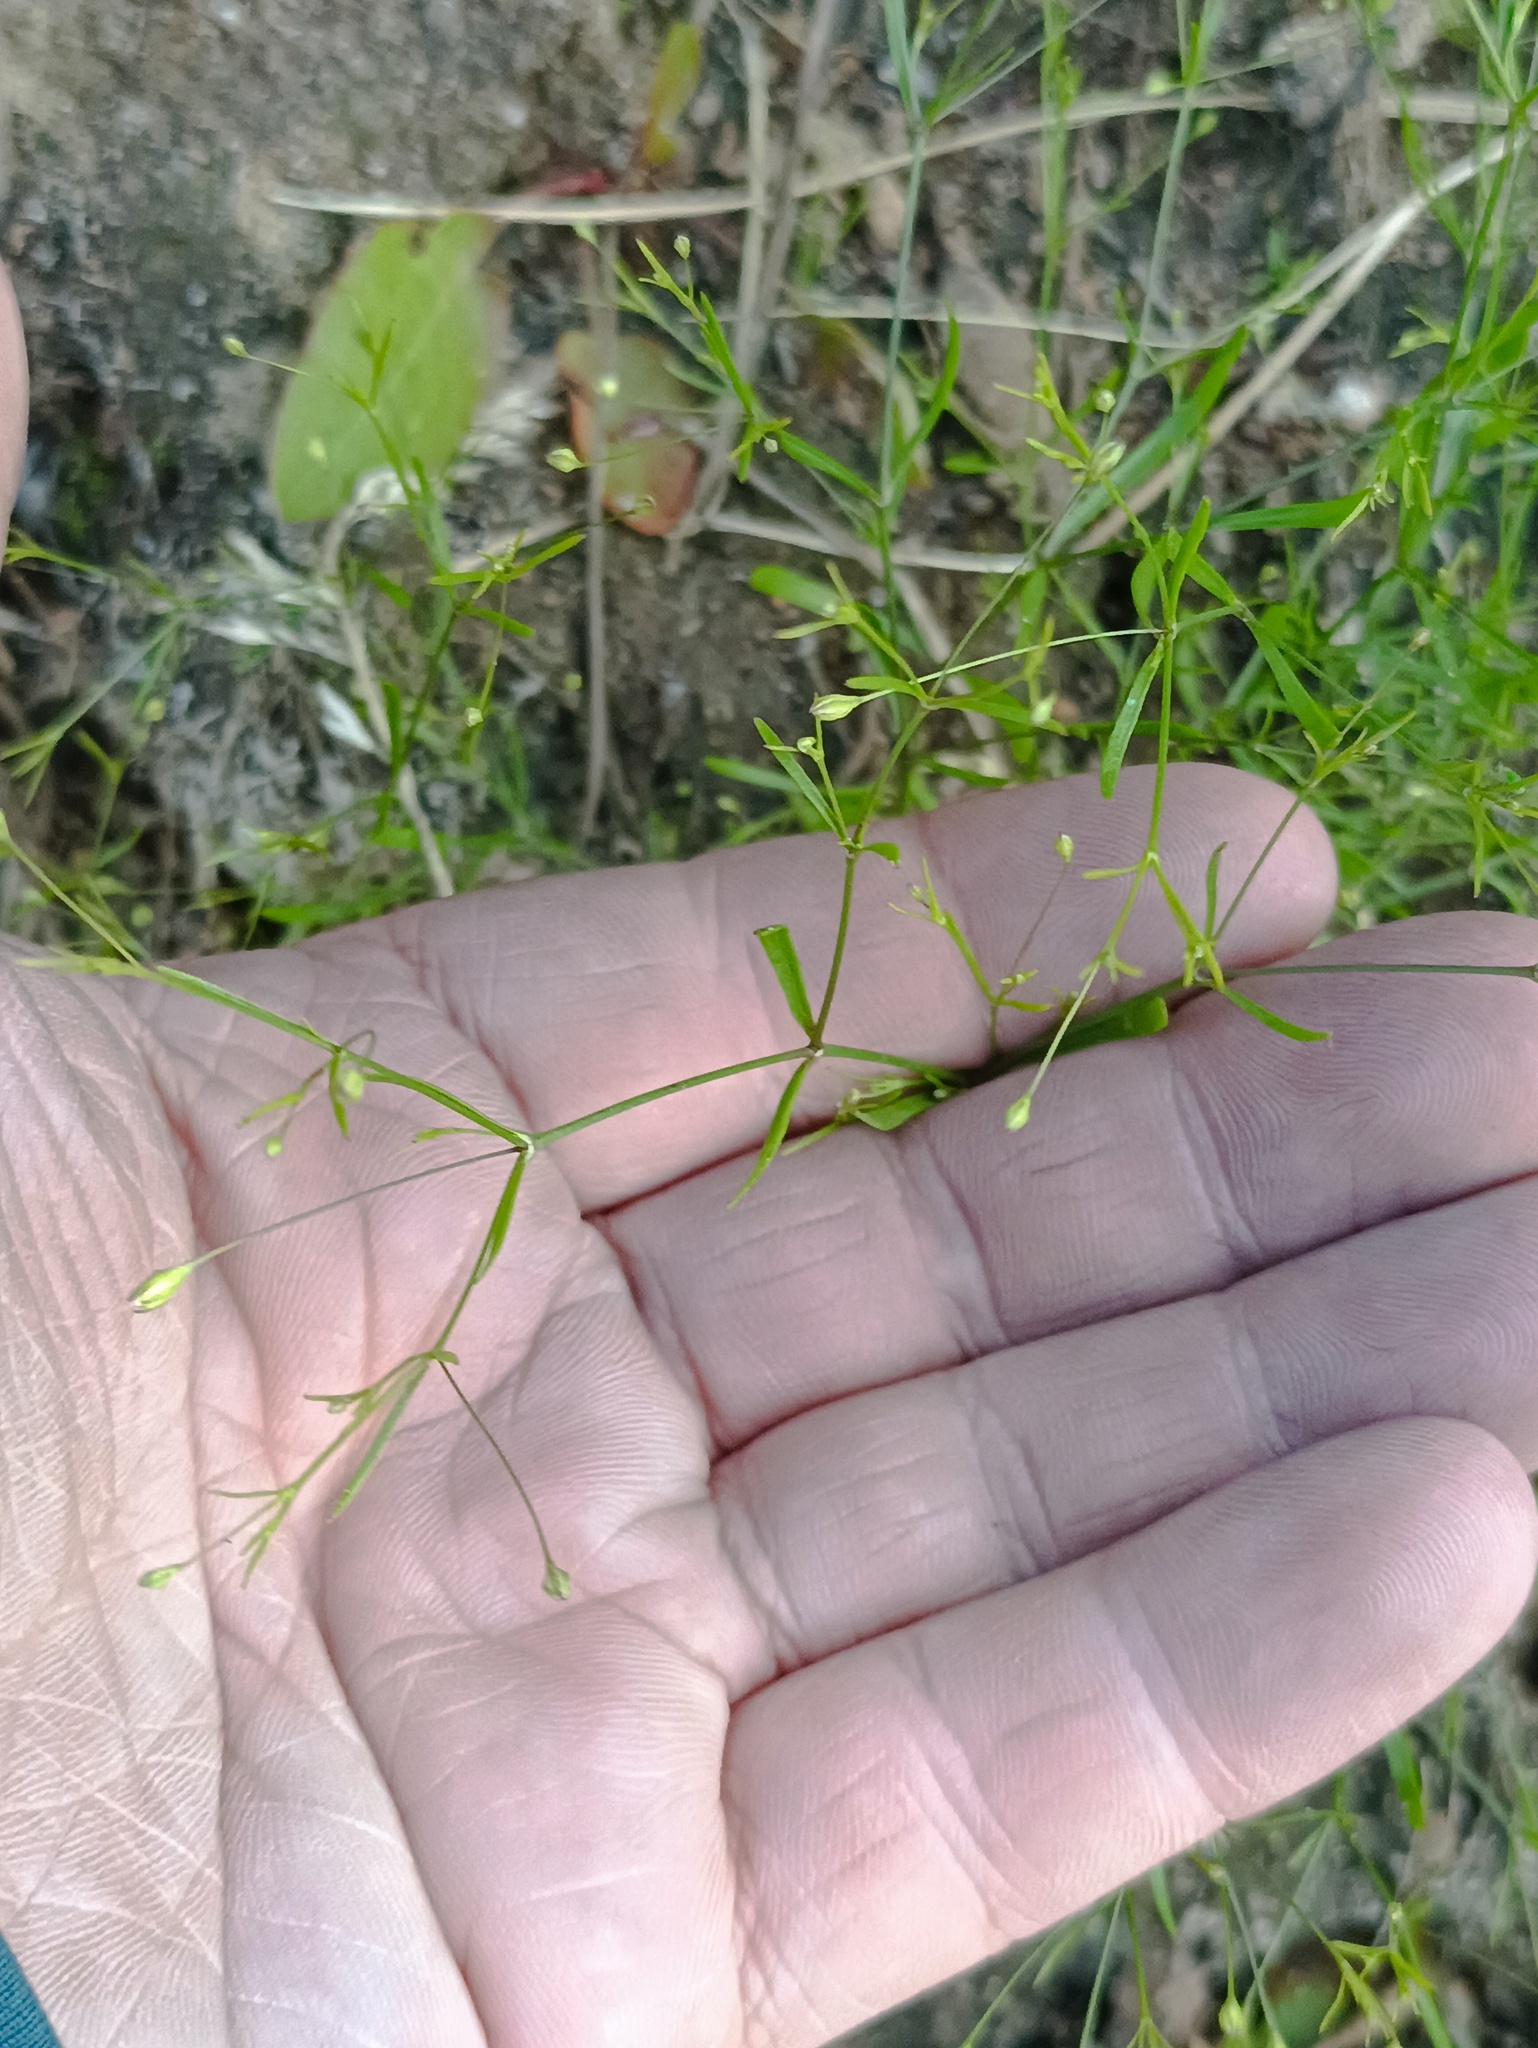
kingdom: Plantae
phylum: Tracheophyta
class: Magnoliopsida
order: Caryophyllales
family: Caryophyllaceae
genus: Psammophiliella
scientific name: Psammophiliella muralis
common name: Cushion baby's-breath
